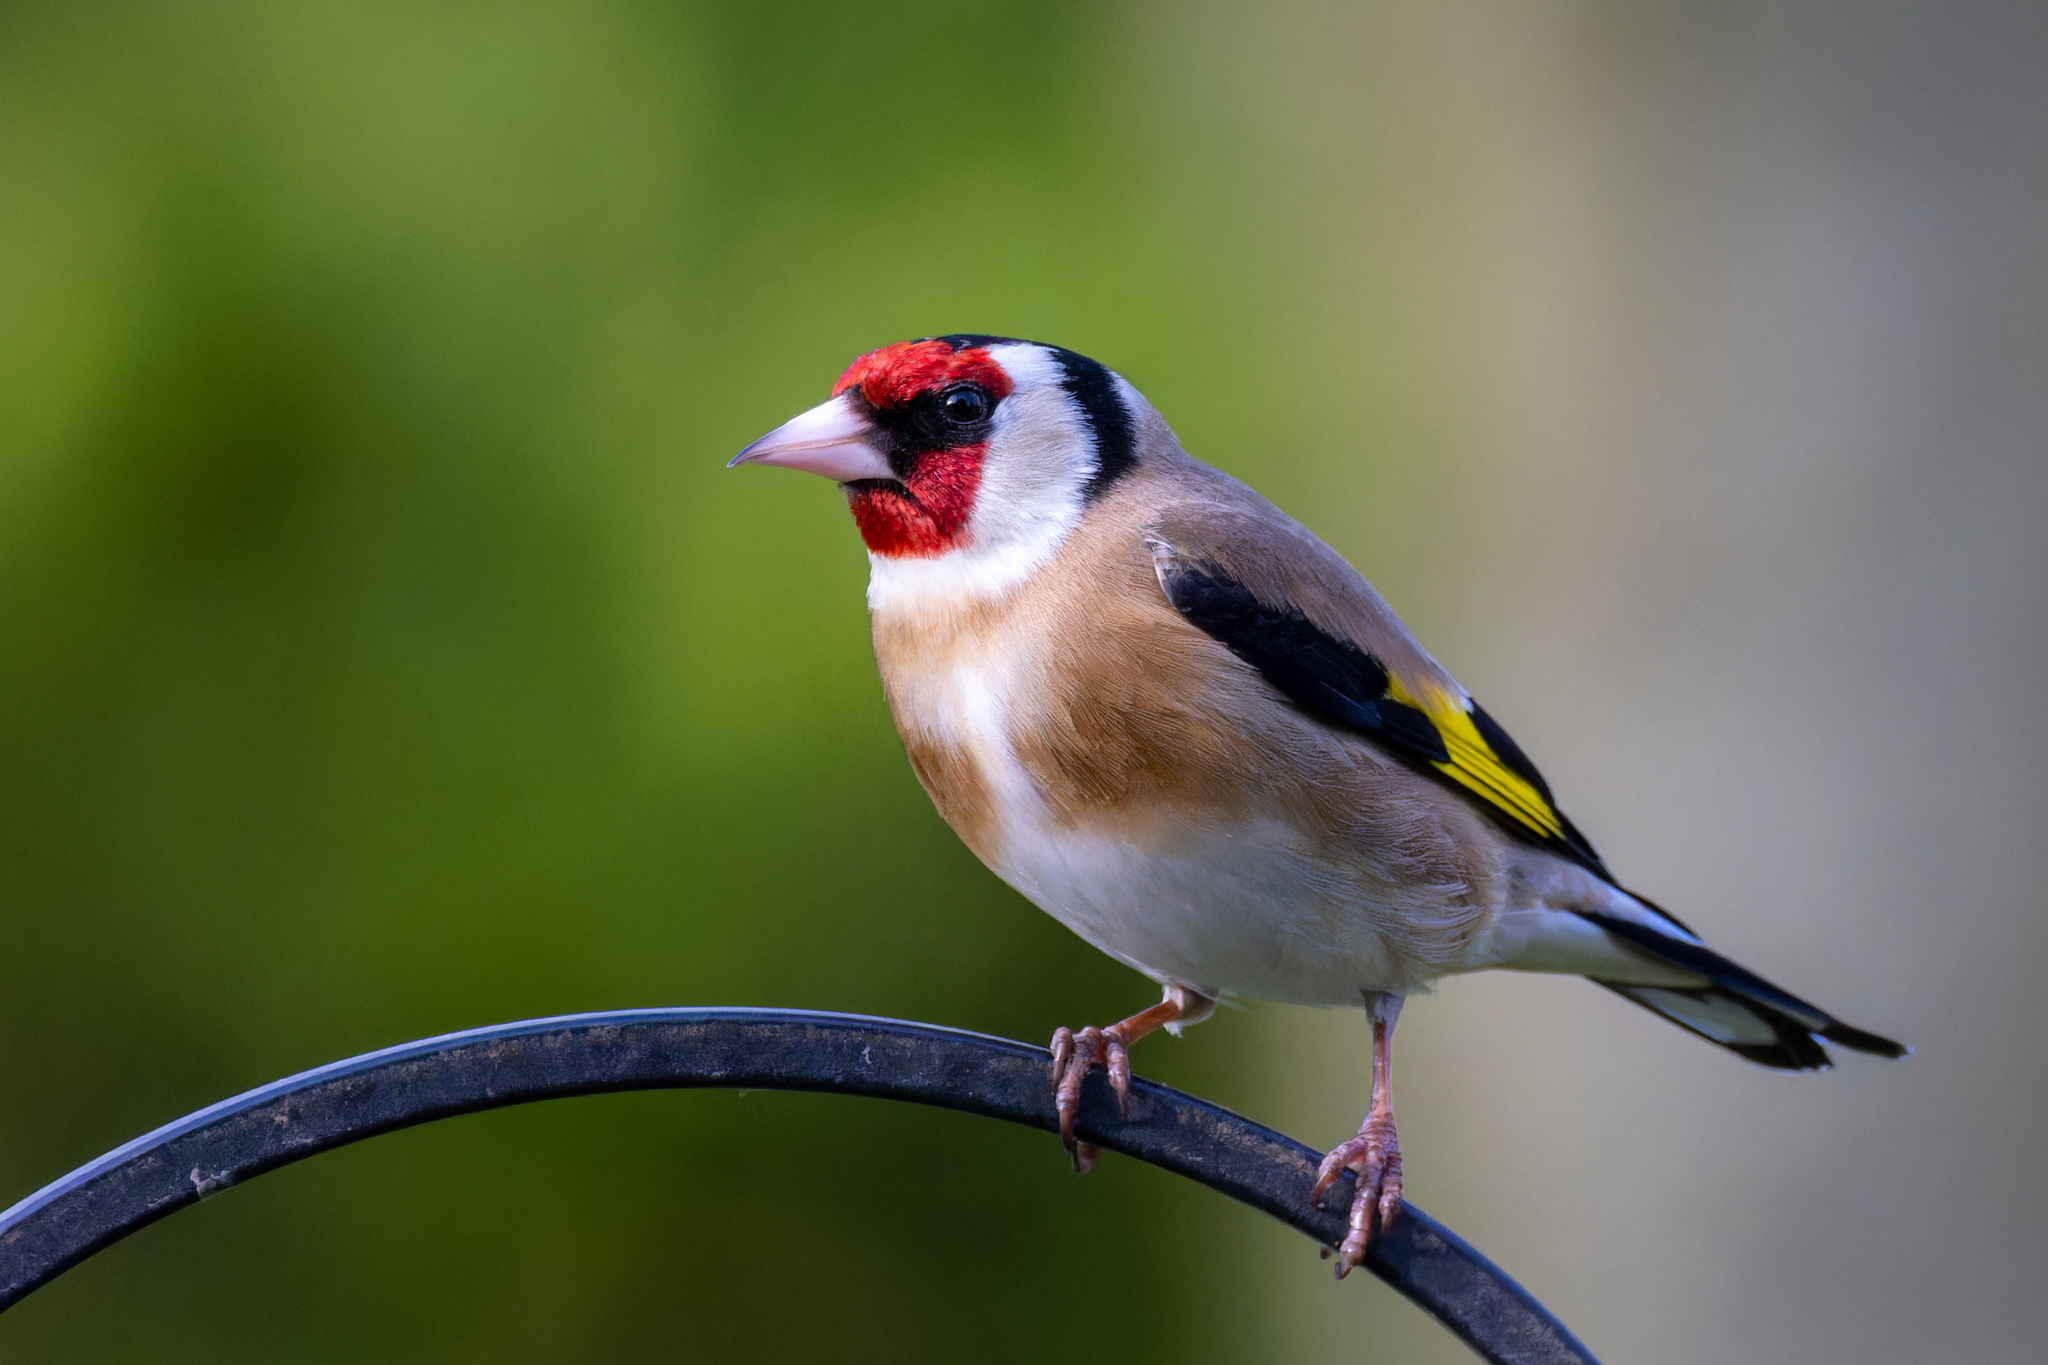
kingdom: Animalia
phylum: Chordata
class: Aves
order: Passeriformes
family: Fringillidae
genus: Carduelis
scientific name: Carduelis carduelis
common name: European goldfinch
